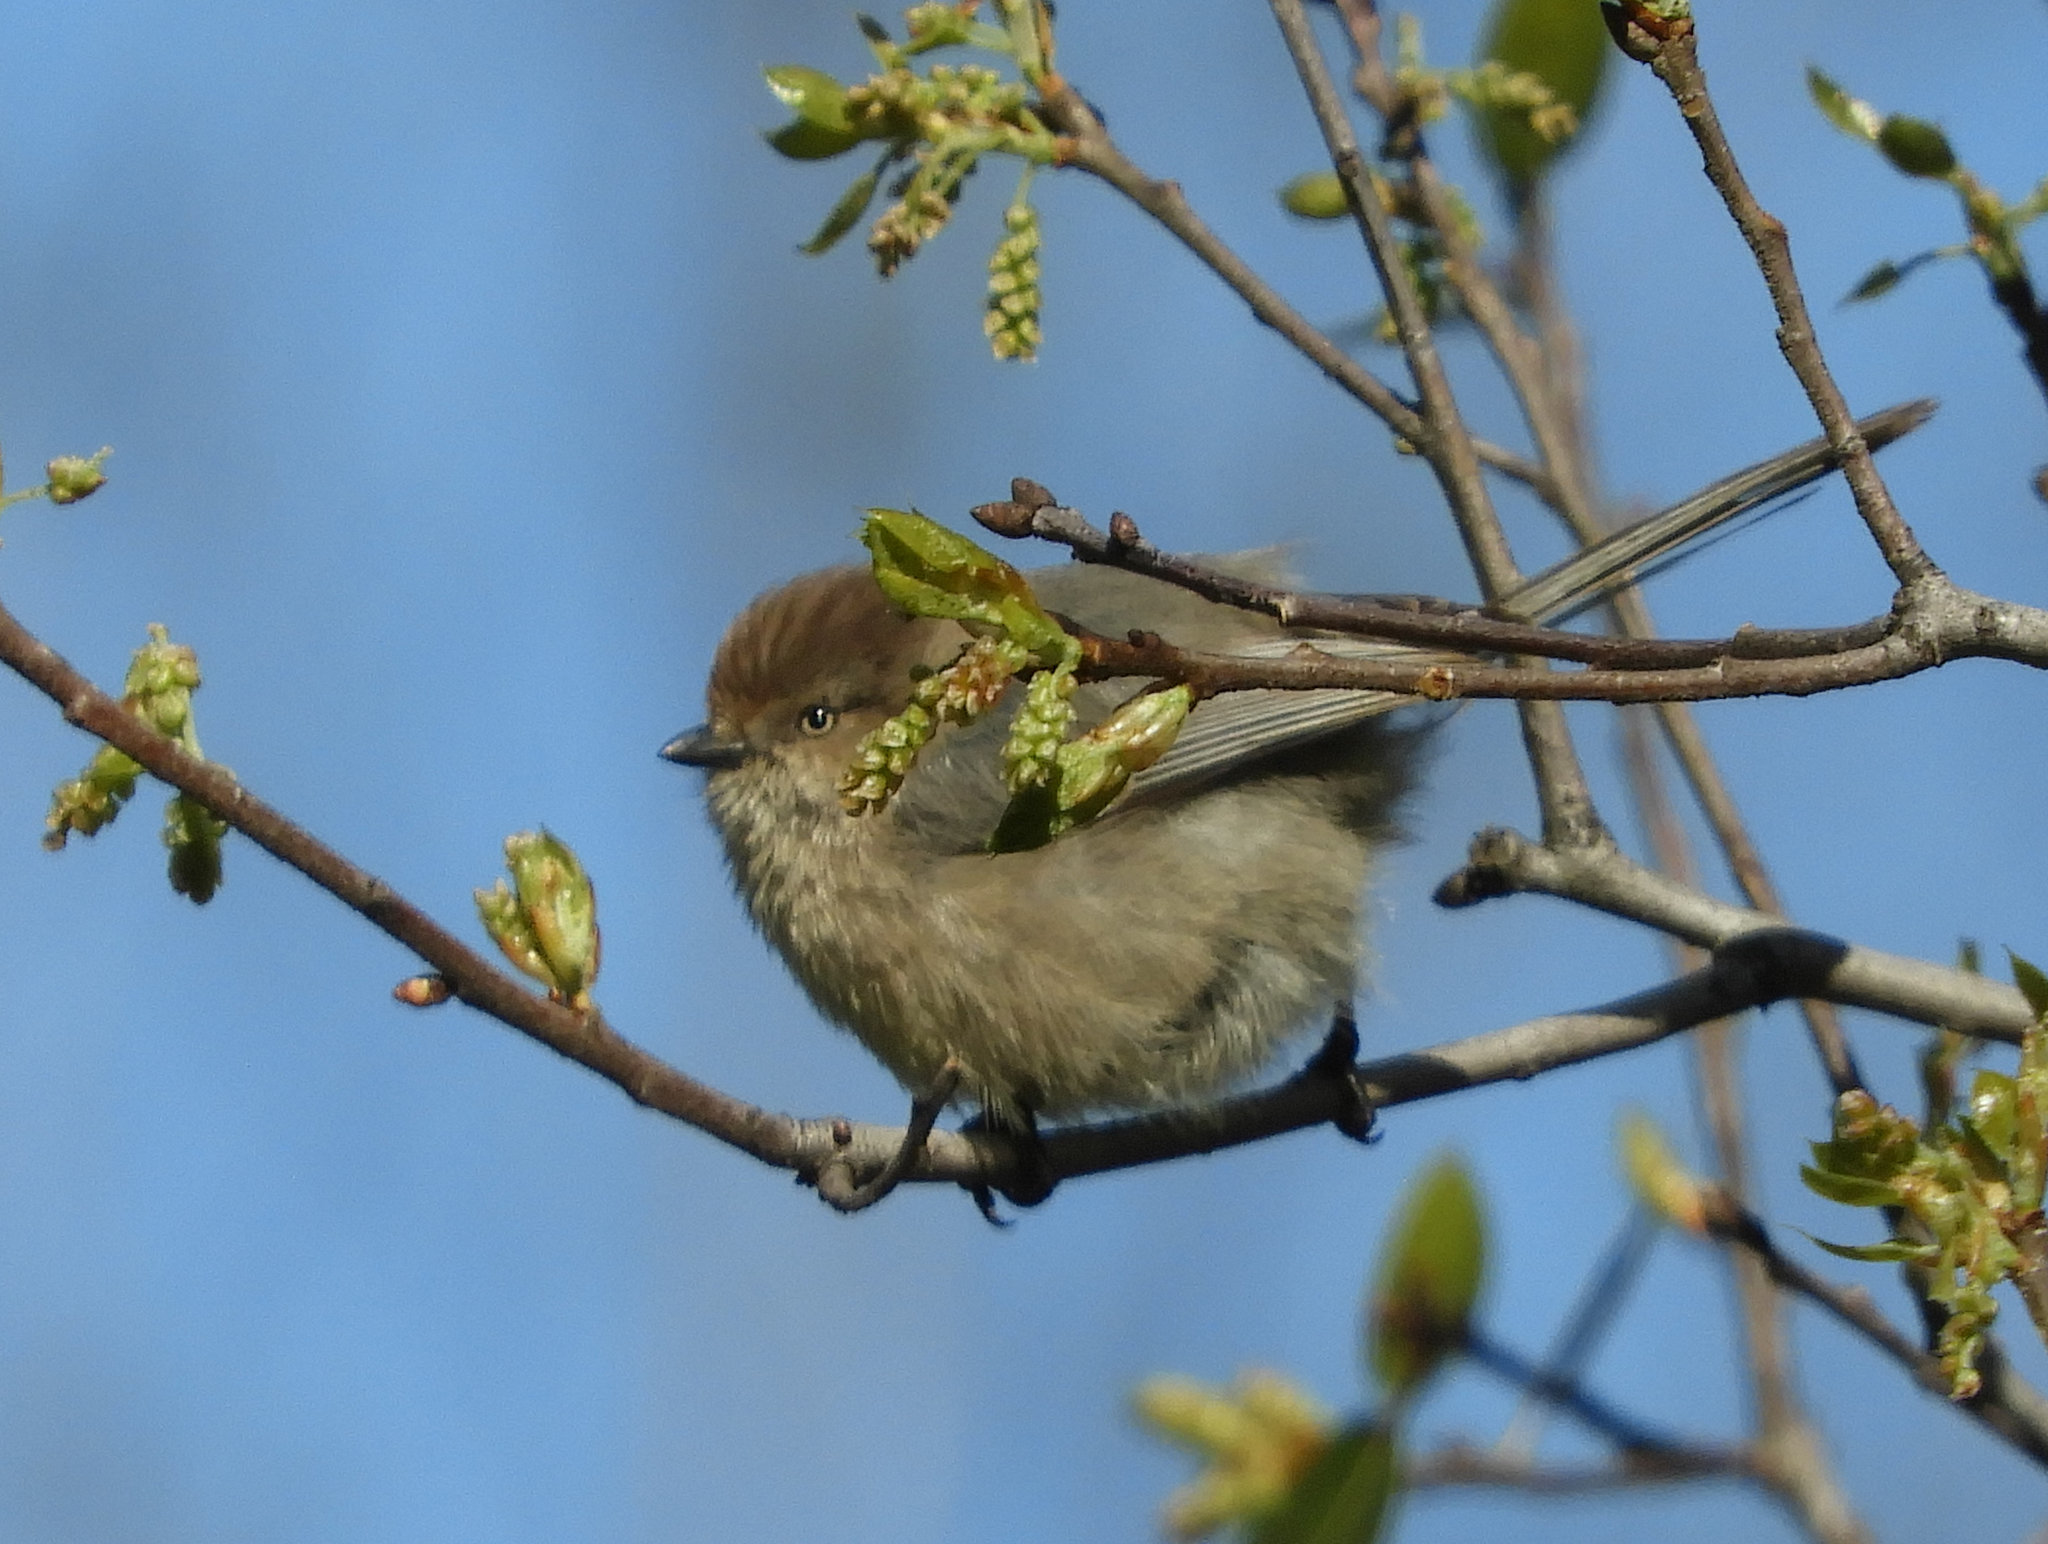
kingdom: Animalia
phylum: Chordata
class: Aves
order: Passeriformes
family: Aegithalidae
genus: Psaltriparus
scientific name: Psaltriparus minimus
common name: American bushtit
